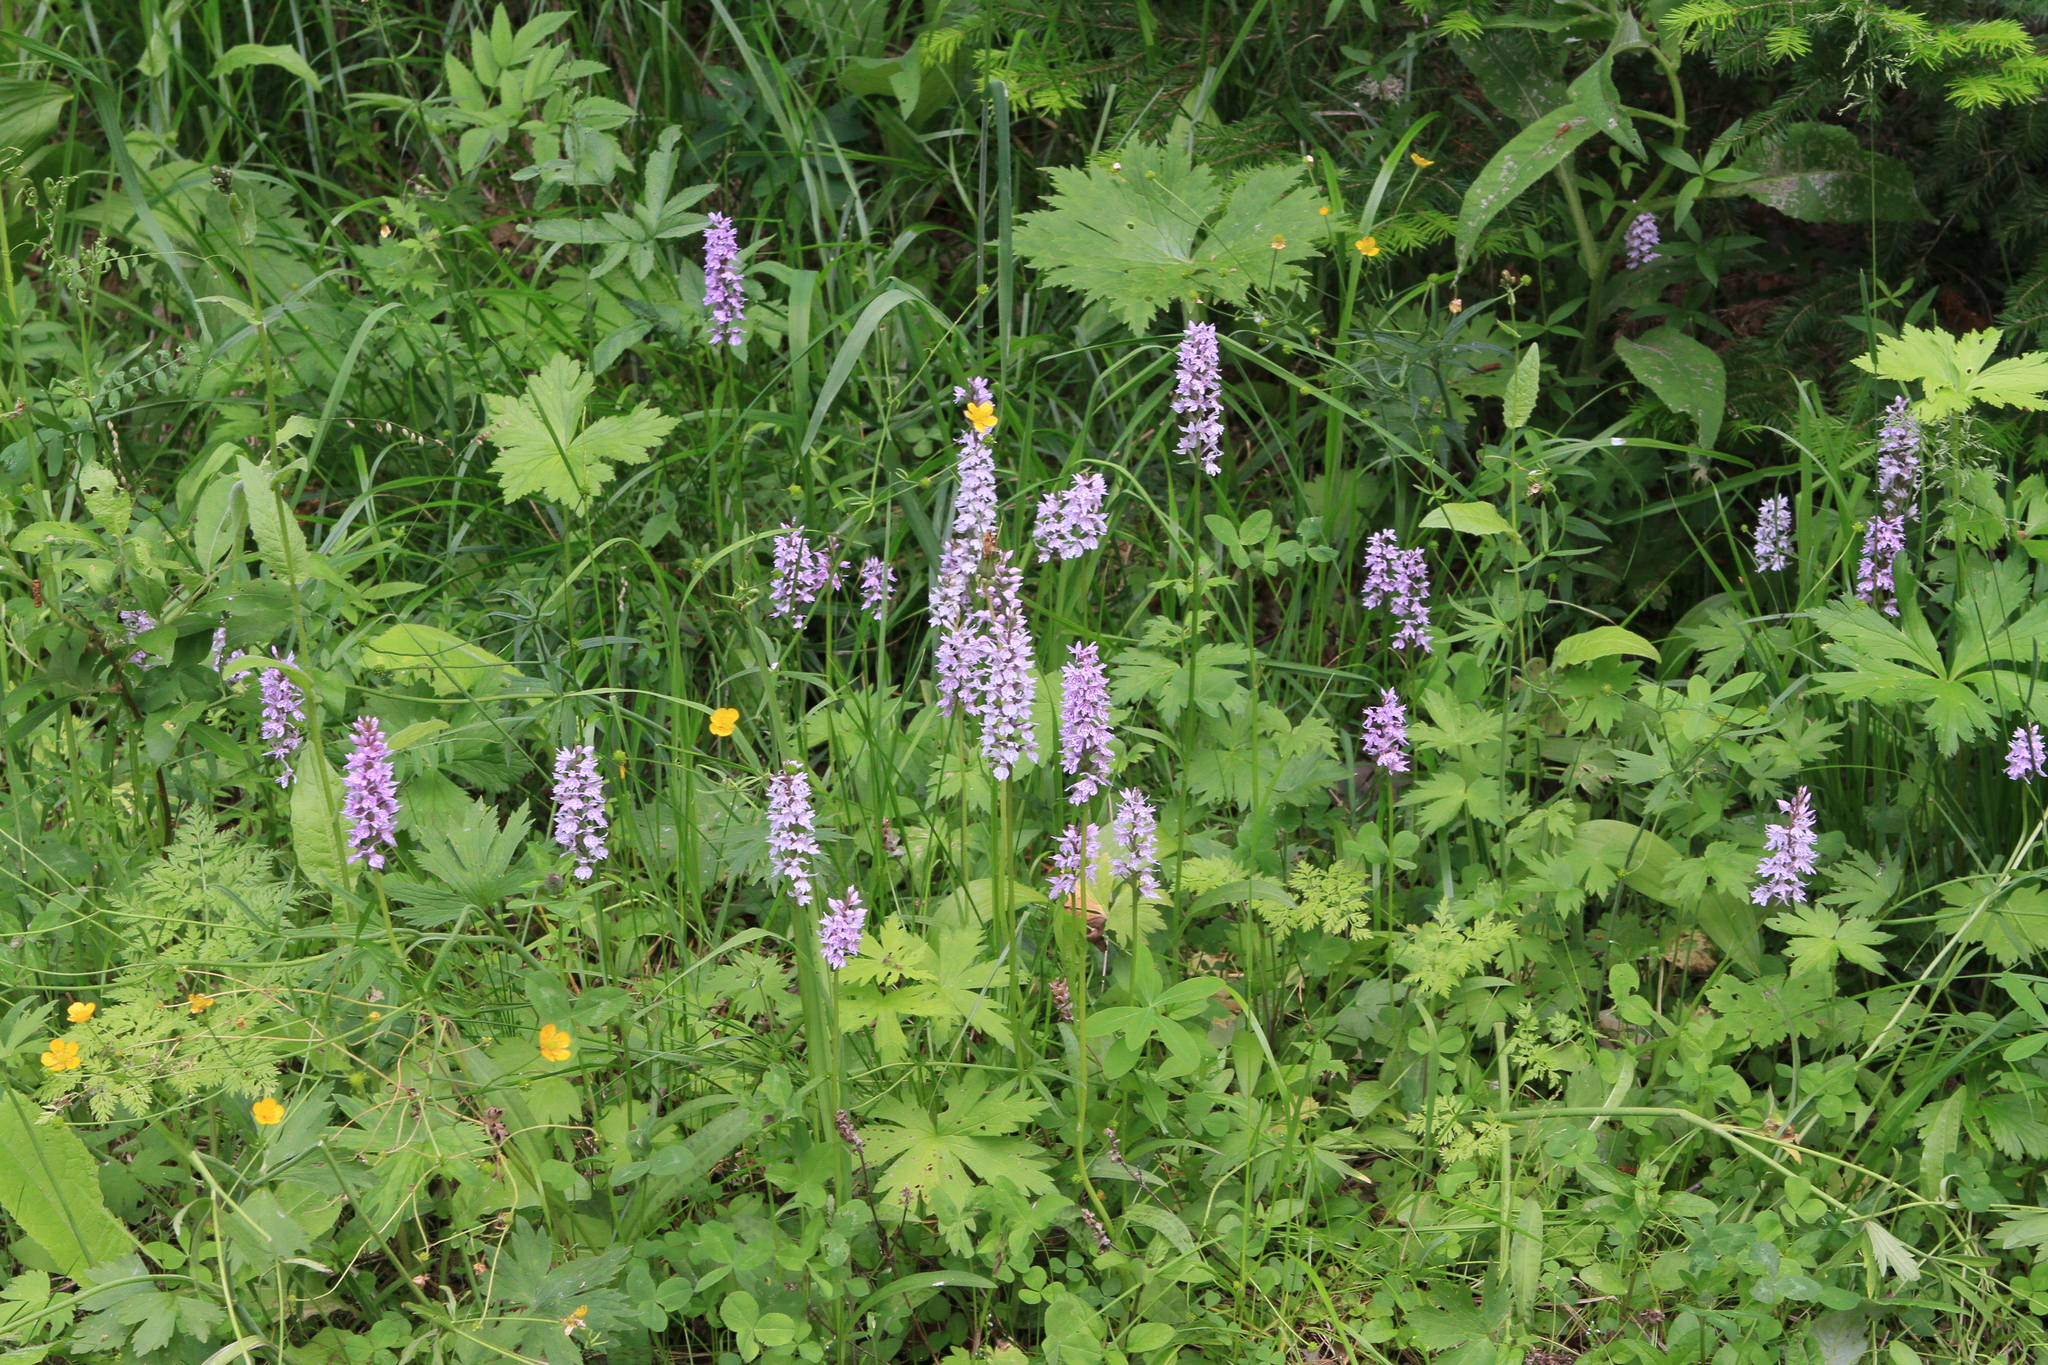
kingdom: Plantae
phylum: Tracheophyta
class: Liliopsida
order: Asparagales
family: Orchidaceae
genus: Dactylorhiza
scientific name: Dactylorhiza maculata
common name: Heath spotted-orchid
